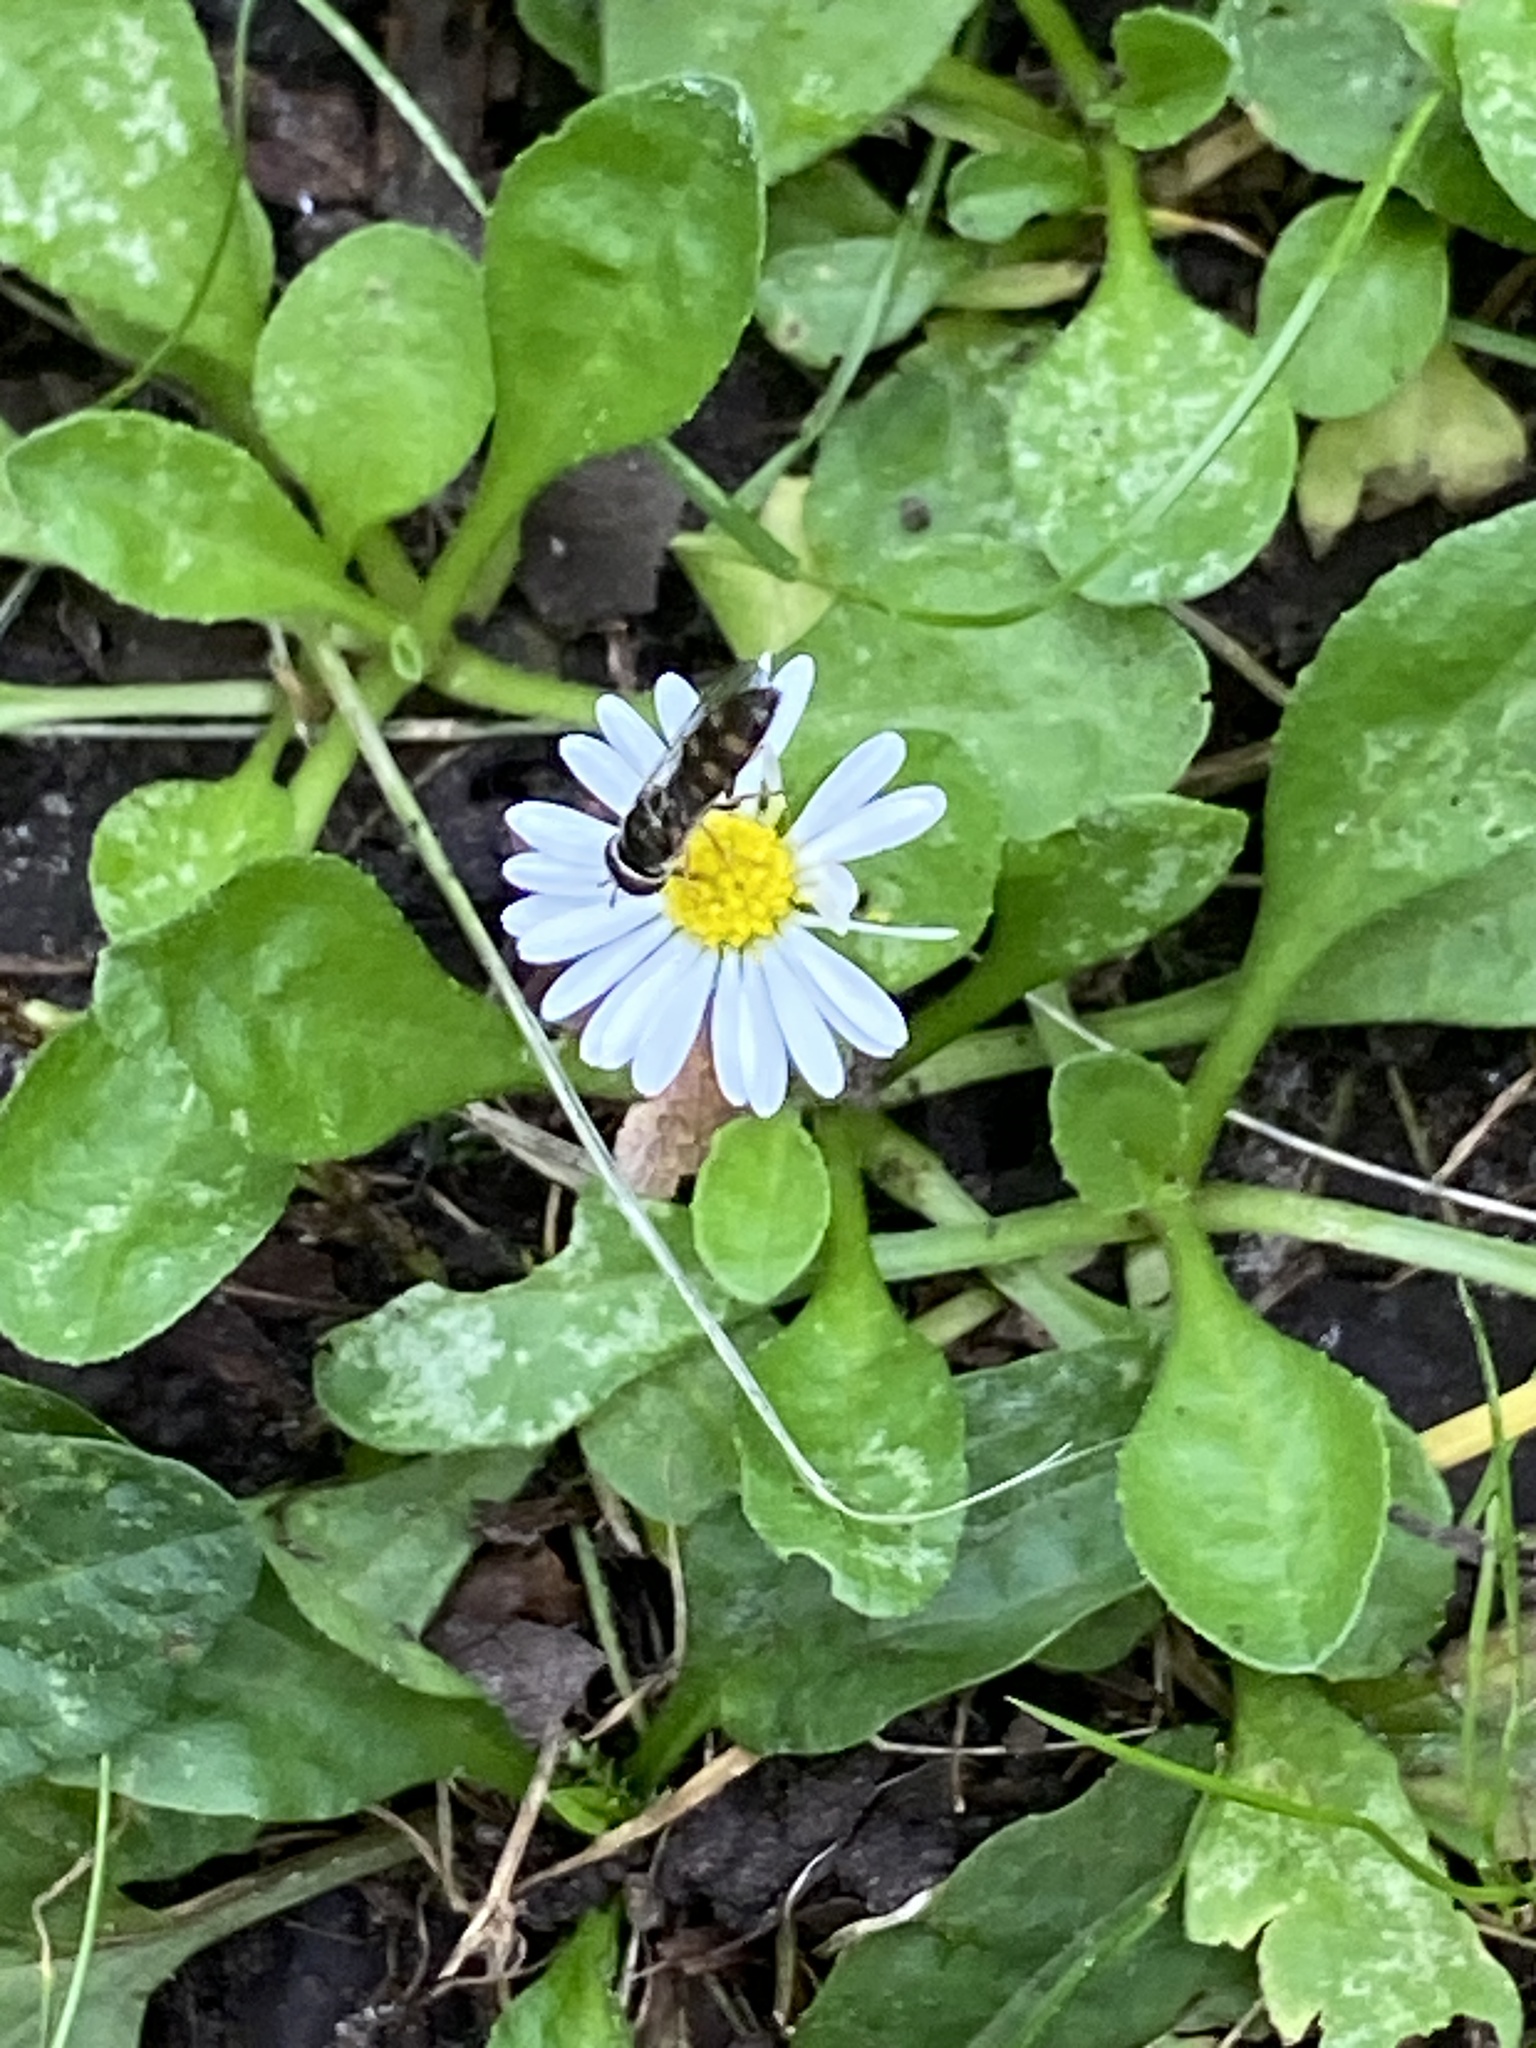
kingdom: Plantae
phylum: Tracheophyta
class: Magnoliopsida
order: Asterales
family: Asteraceae
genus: Bellis
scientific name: Bellis perennis
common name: Lawndaisy
